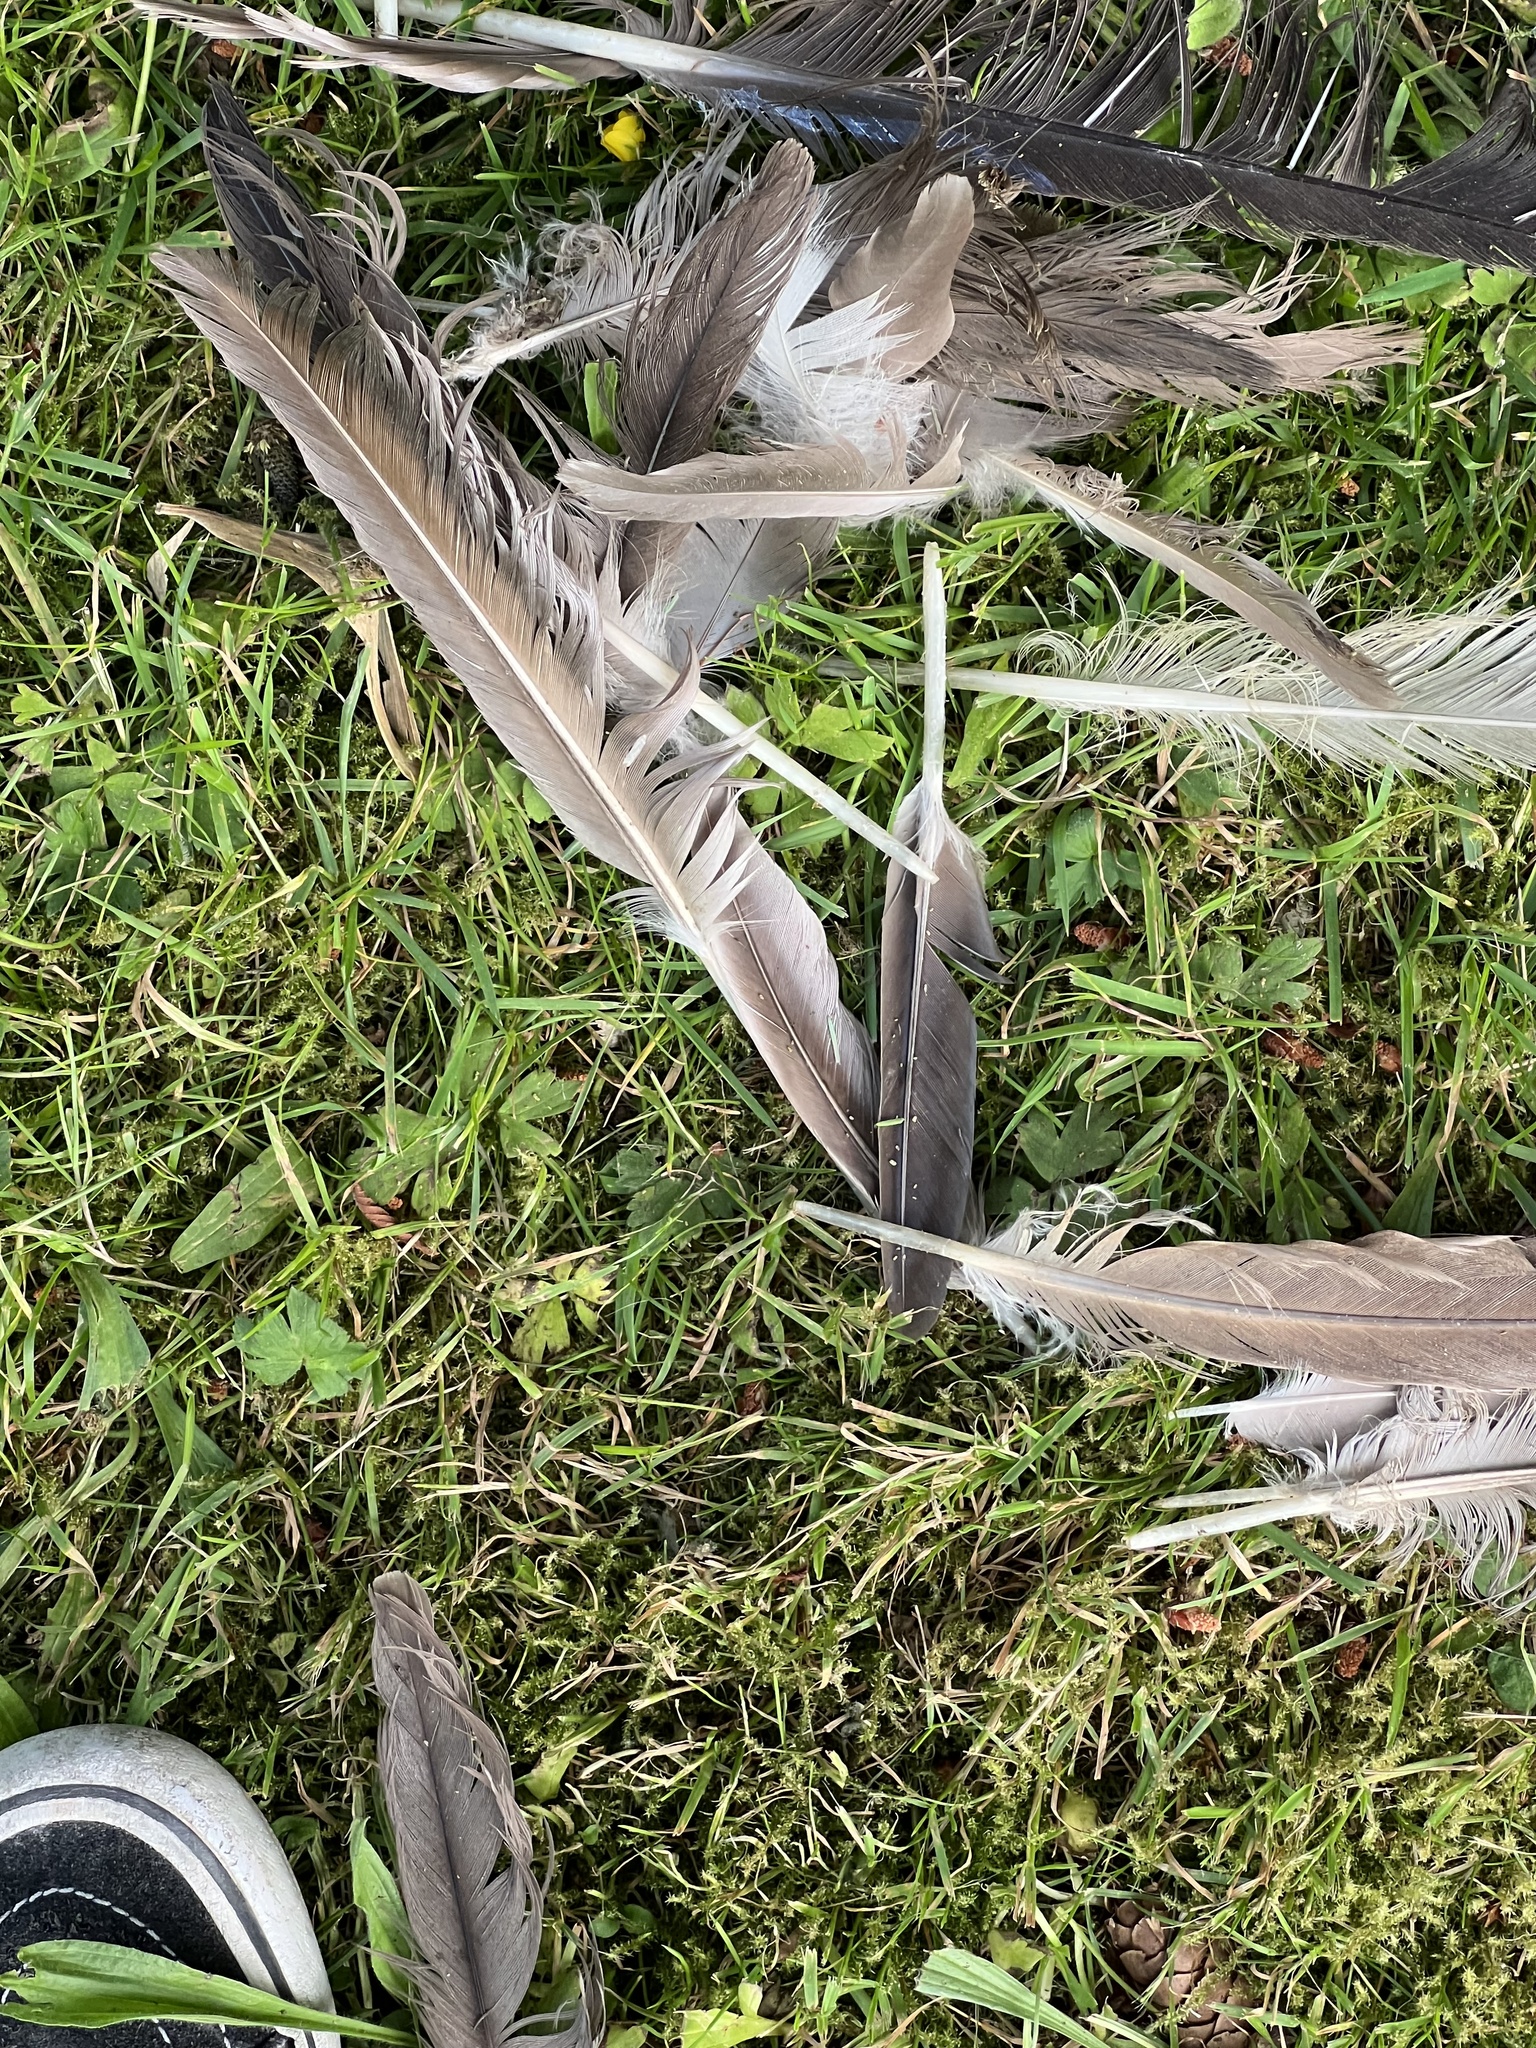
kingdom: Animalia
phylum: Chordata
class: Aves
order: Anseriformes
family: Anatidae
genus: Branta
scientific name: Branta canadensis
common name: Canada goose
